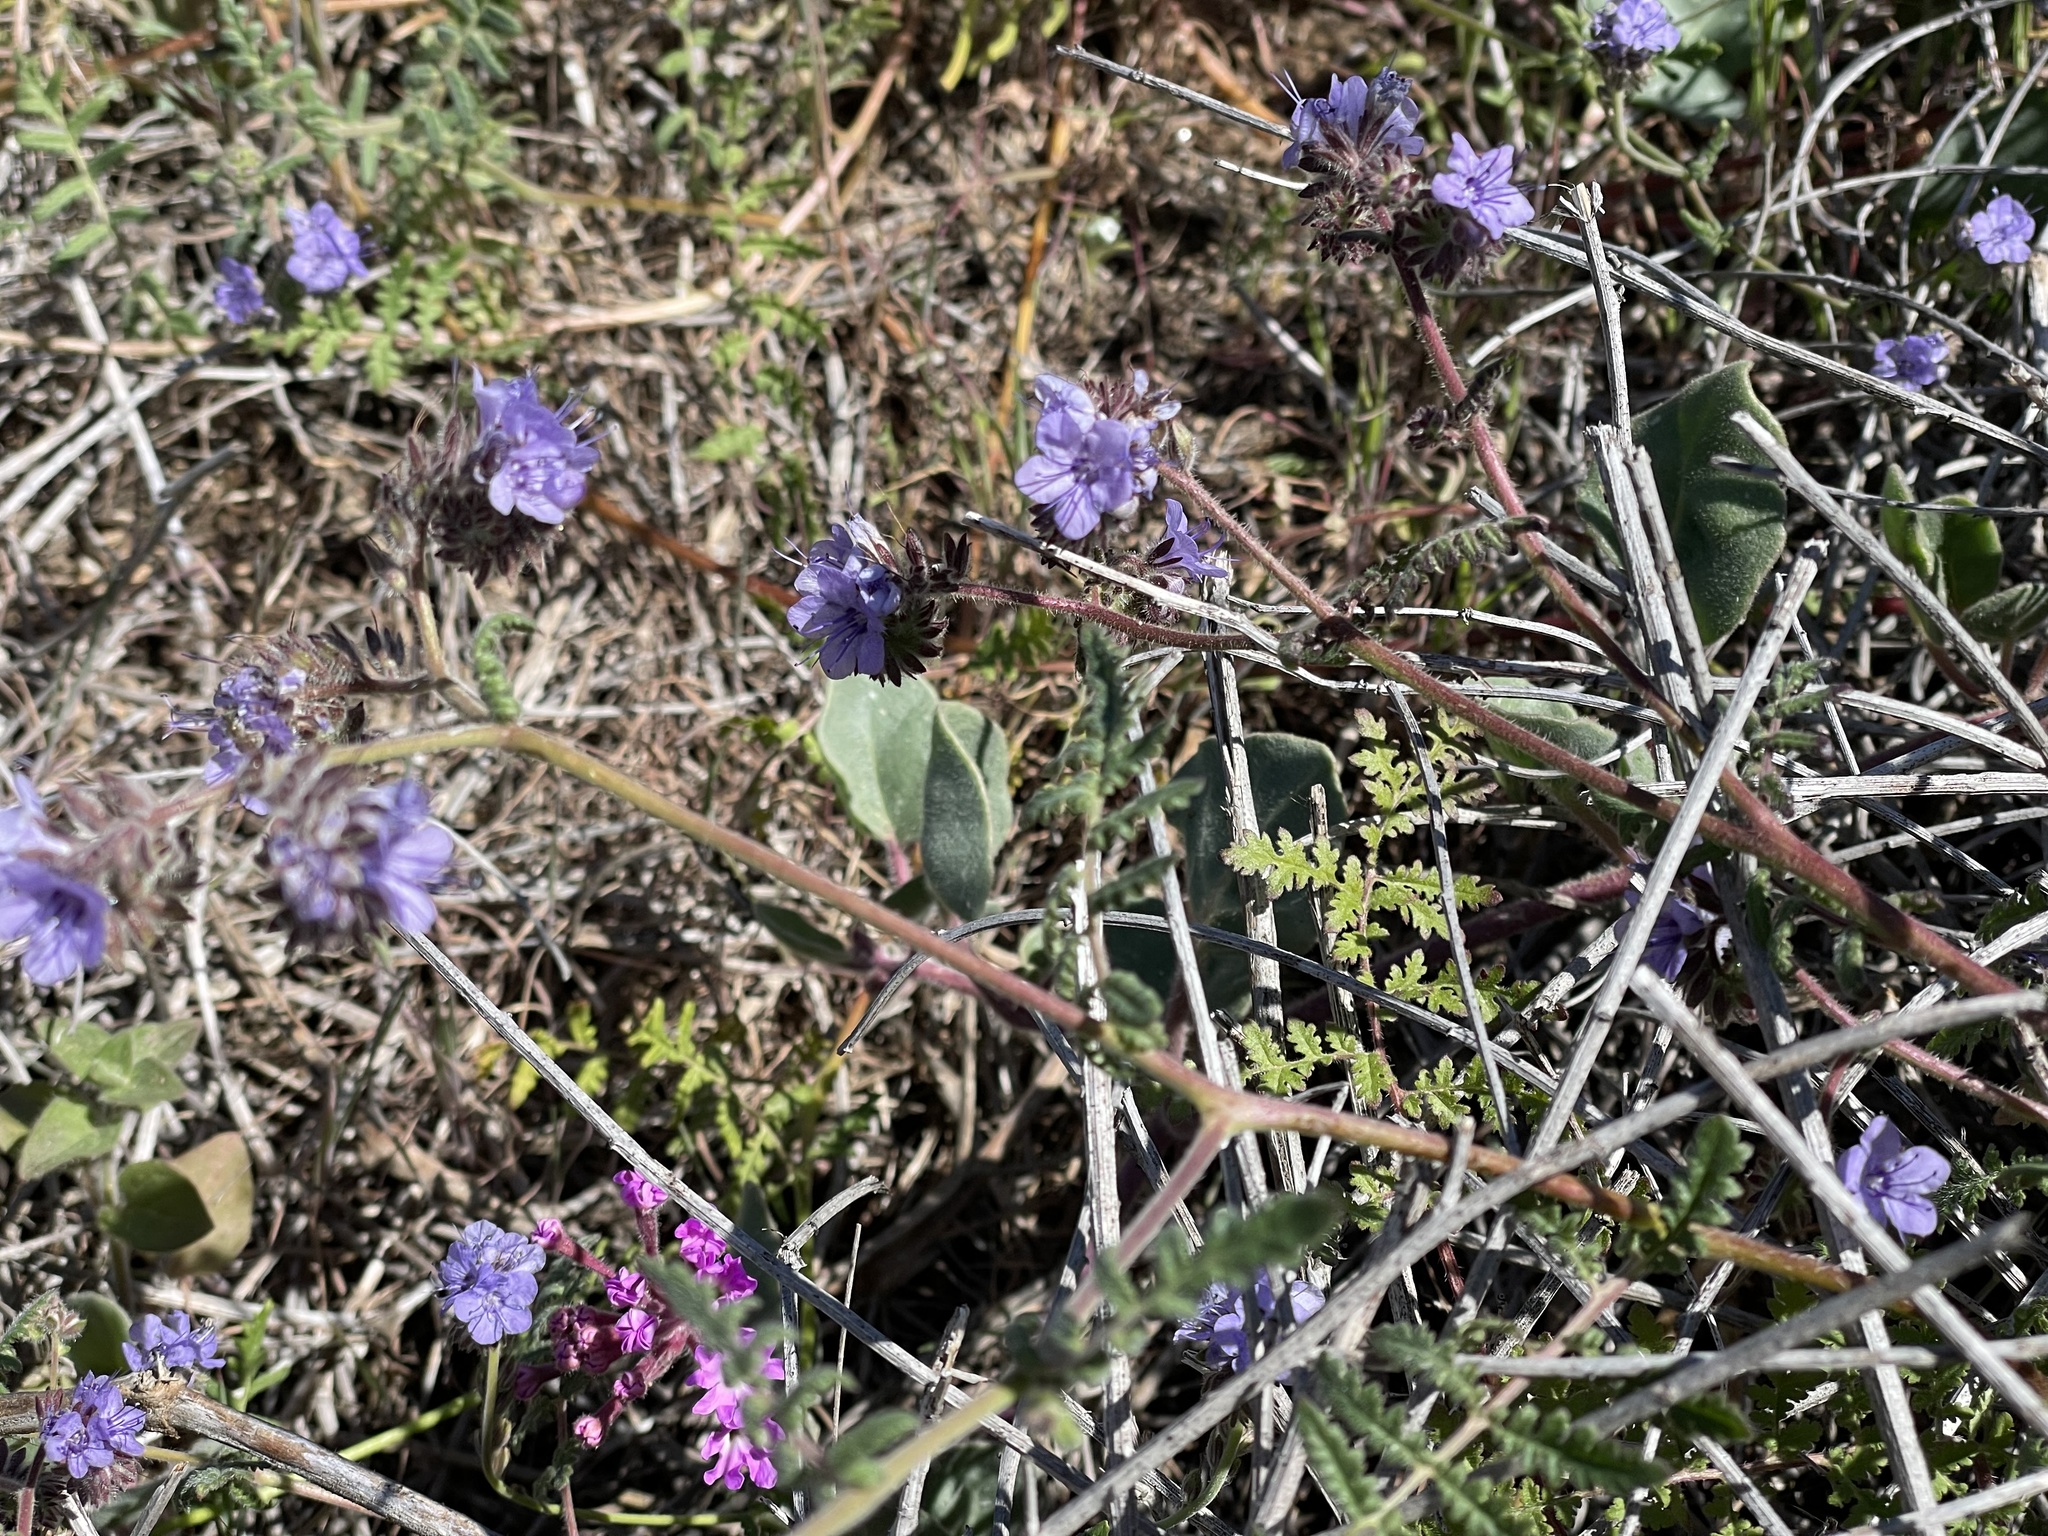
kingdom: Plantae
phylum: Tracheophyta
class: Magnoliopsida
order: Boraginales
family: Hydrophyllaceae
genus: Phacelia
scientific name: Phacelia distans
